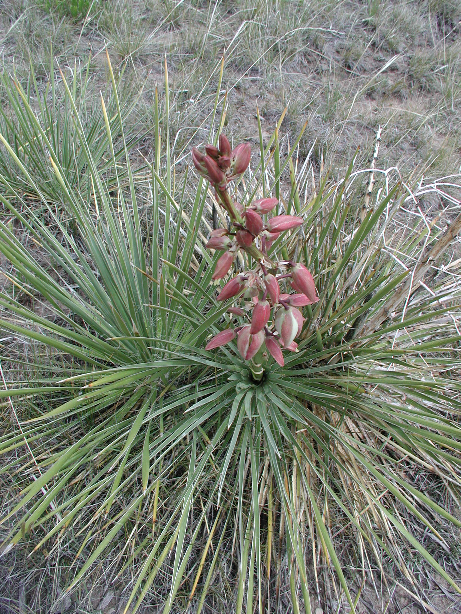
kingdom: Plantae
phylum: Tracheophyta
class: Liliopsida
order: Asparagales
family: Asparagaceae
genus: Yucca
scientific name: Yucca glauca
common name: Great plains yucca
